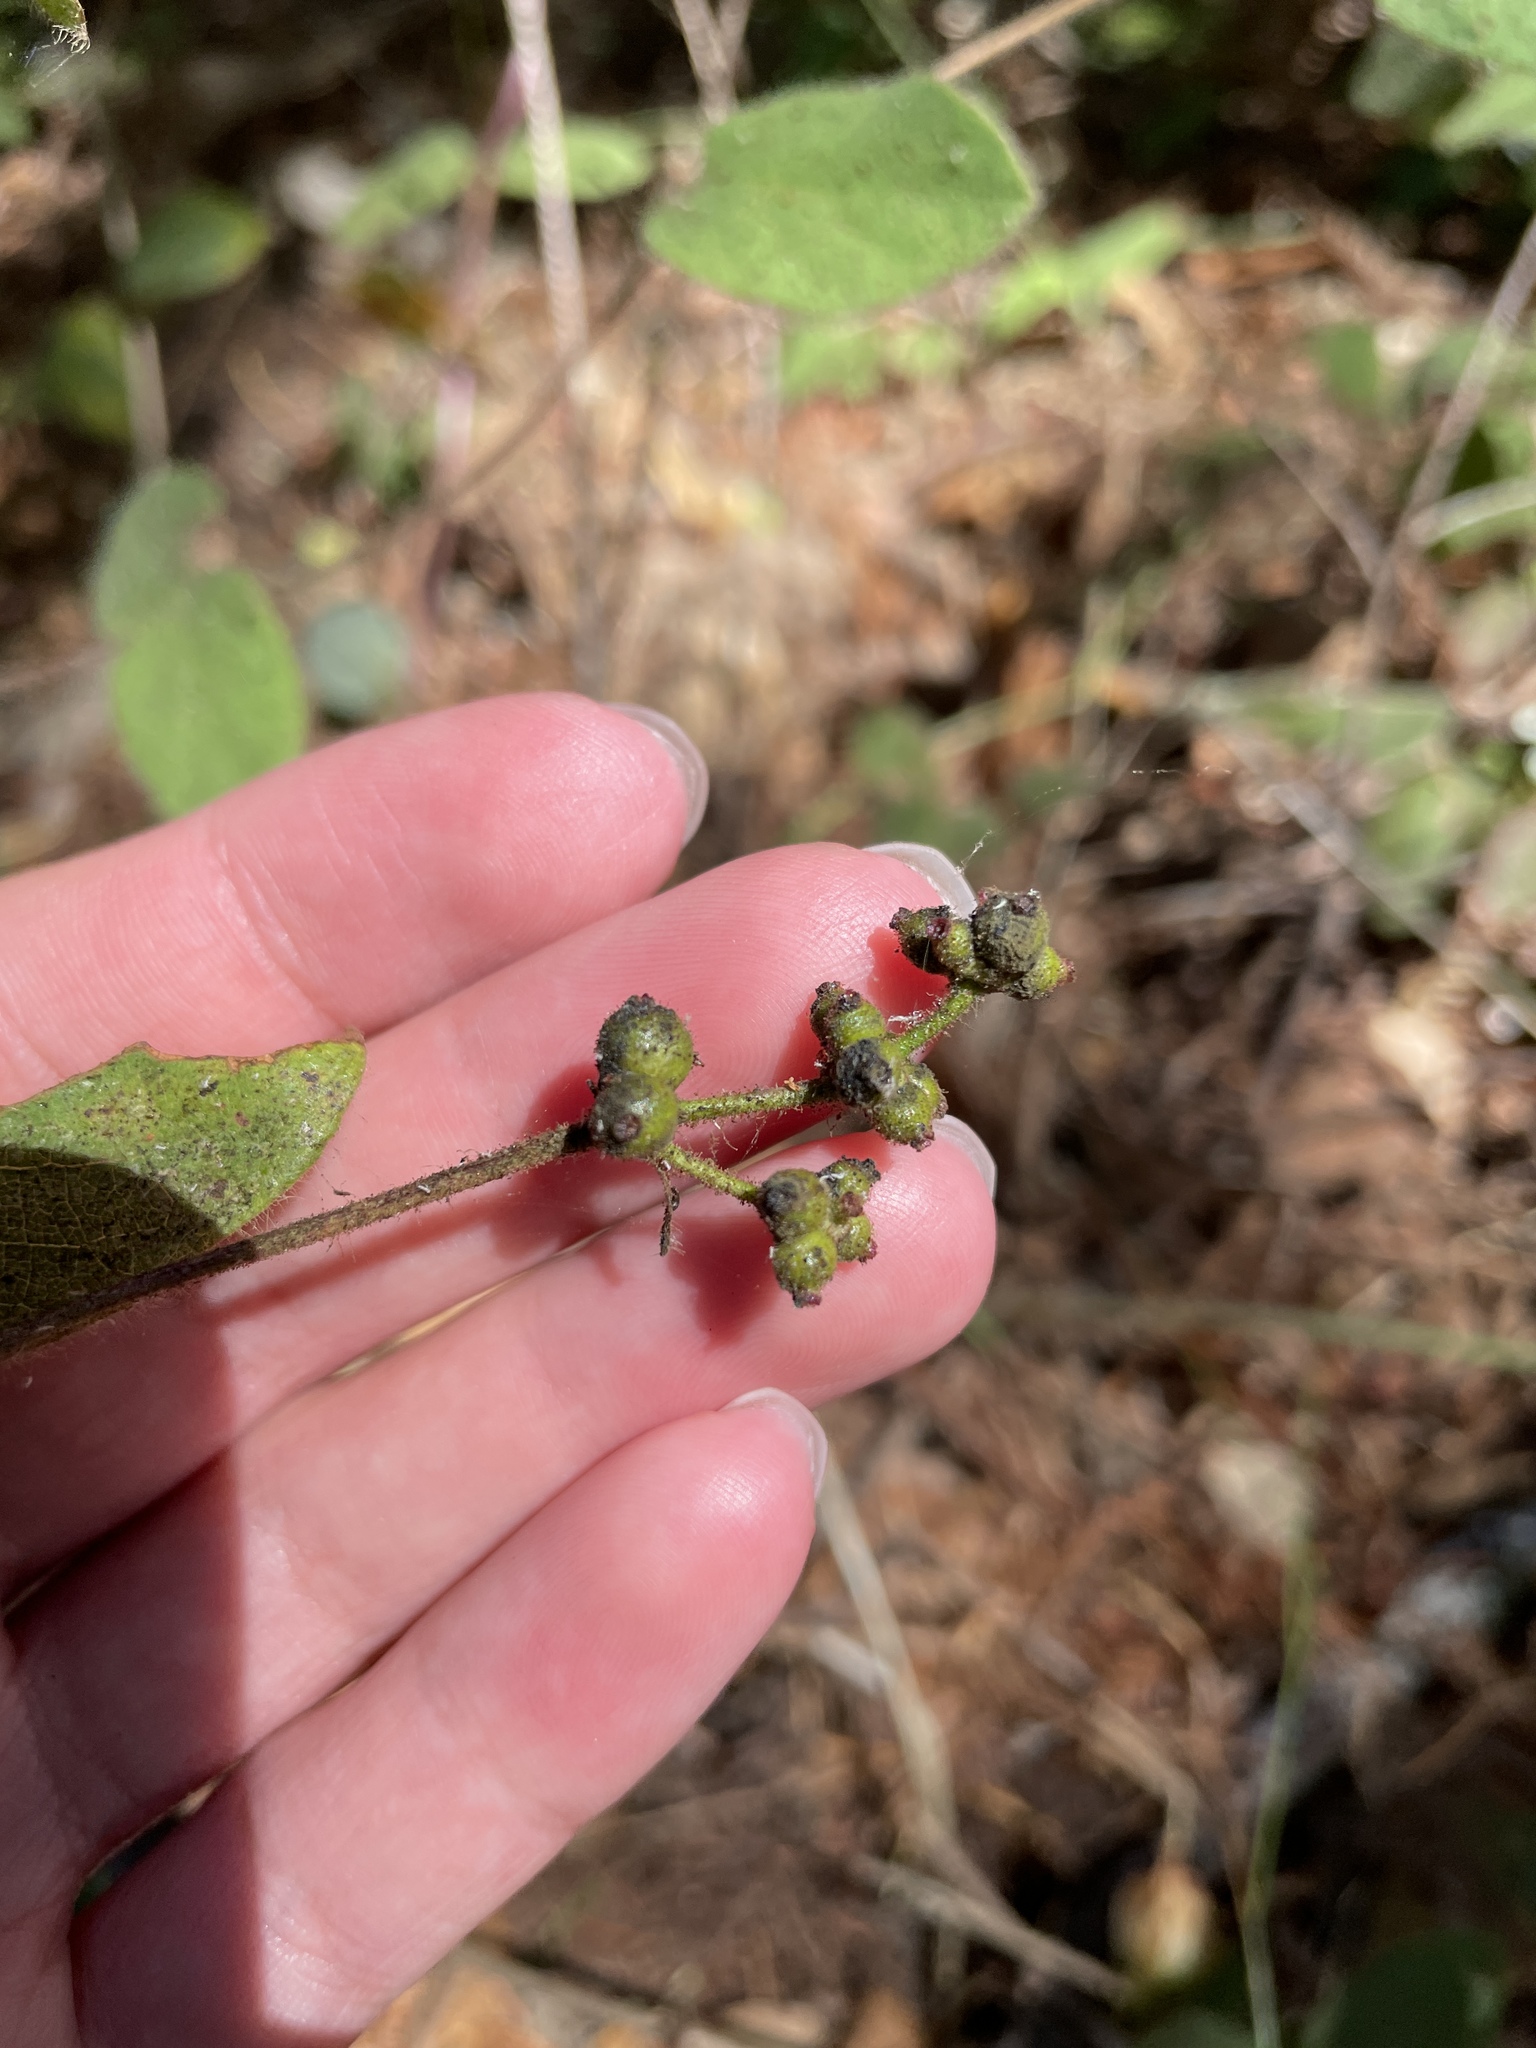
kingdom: Plantae
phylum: Tracheophyta
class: Magnoliopsida
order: Dipsacales
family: Caprifoliaceae
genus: Lonicera
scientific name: Lonicera hispidula
